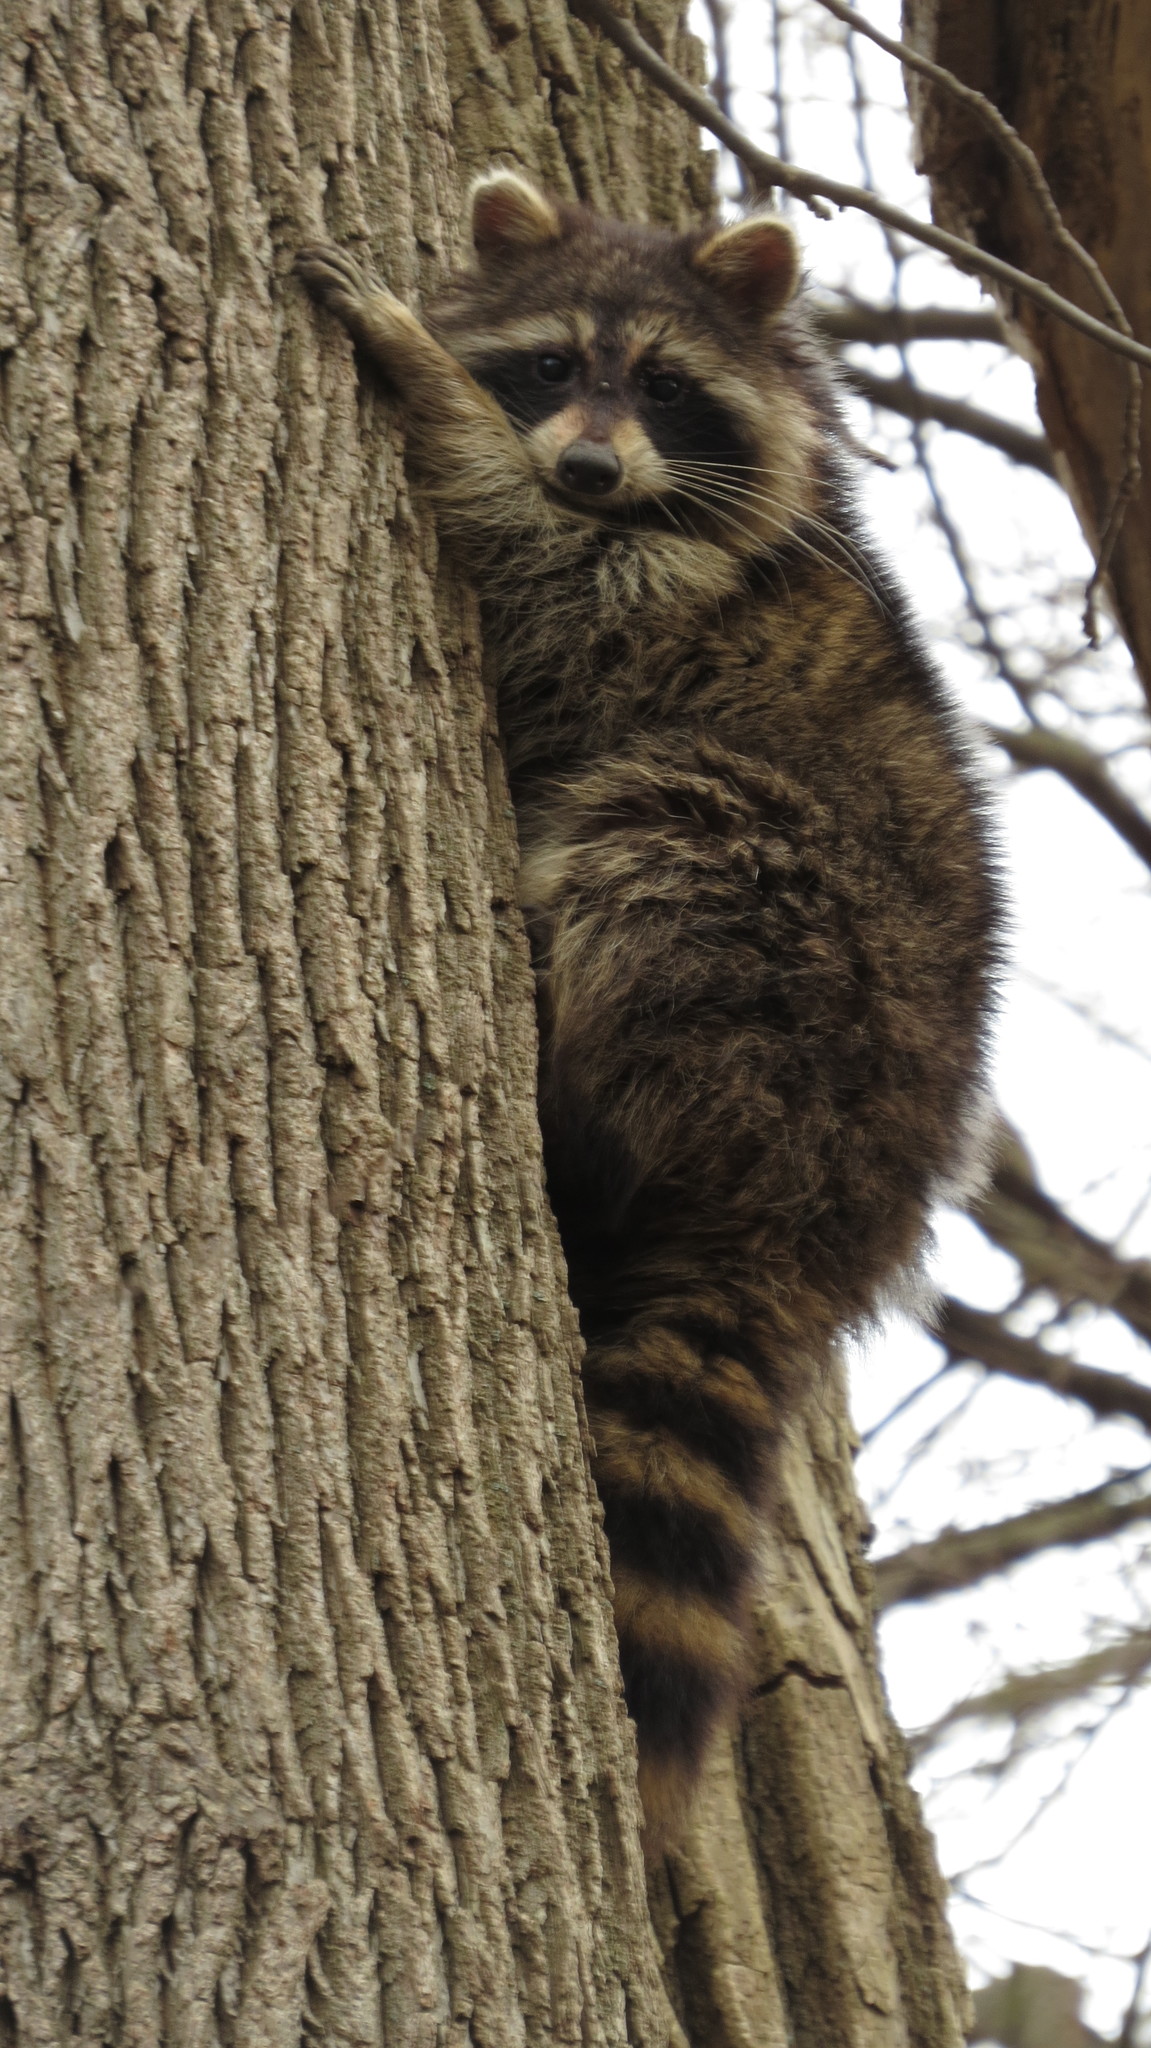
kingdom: Animalia
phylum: Chordata
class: Mammalia
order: Carnivora
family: Procyonidae
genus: Procyon
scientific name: Procyon lotor
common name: Raccoon
